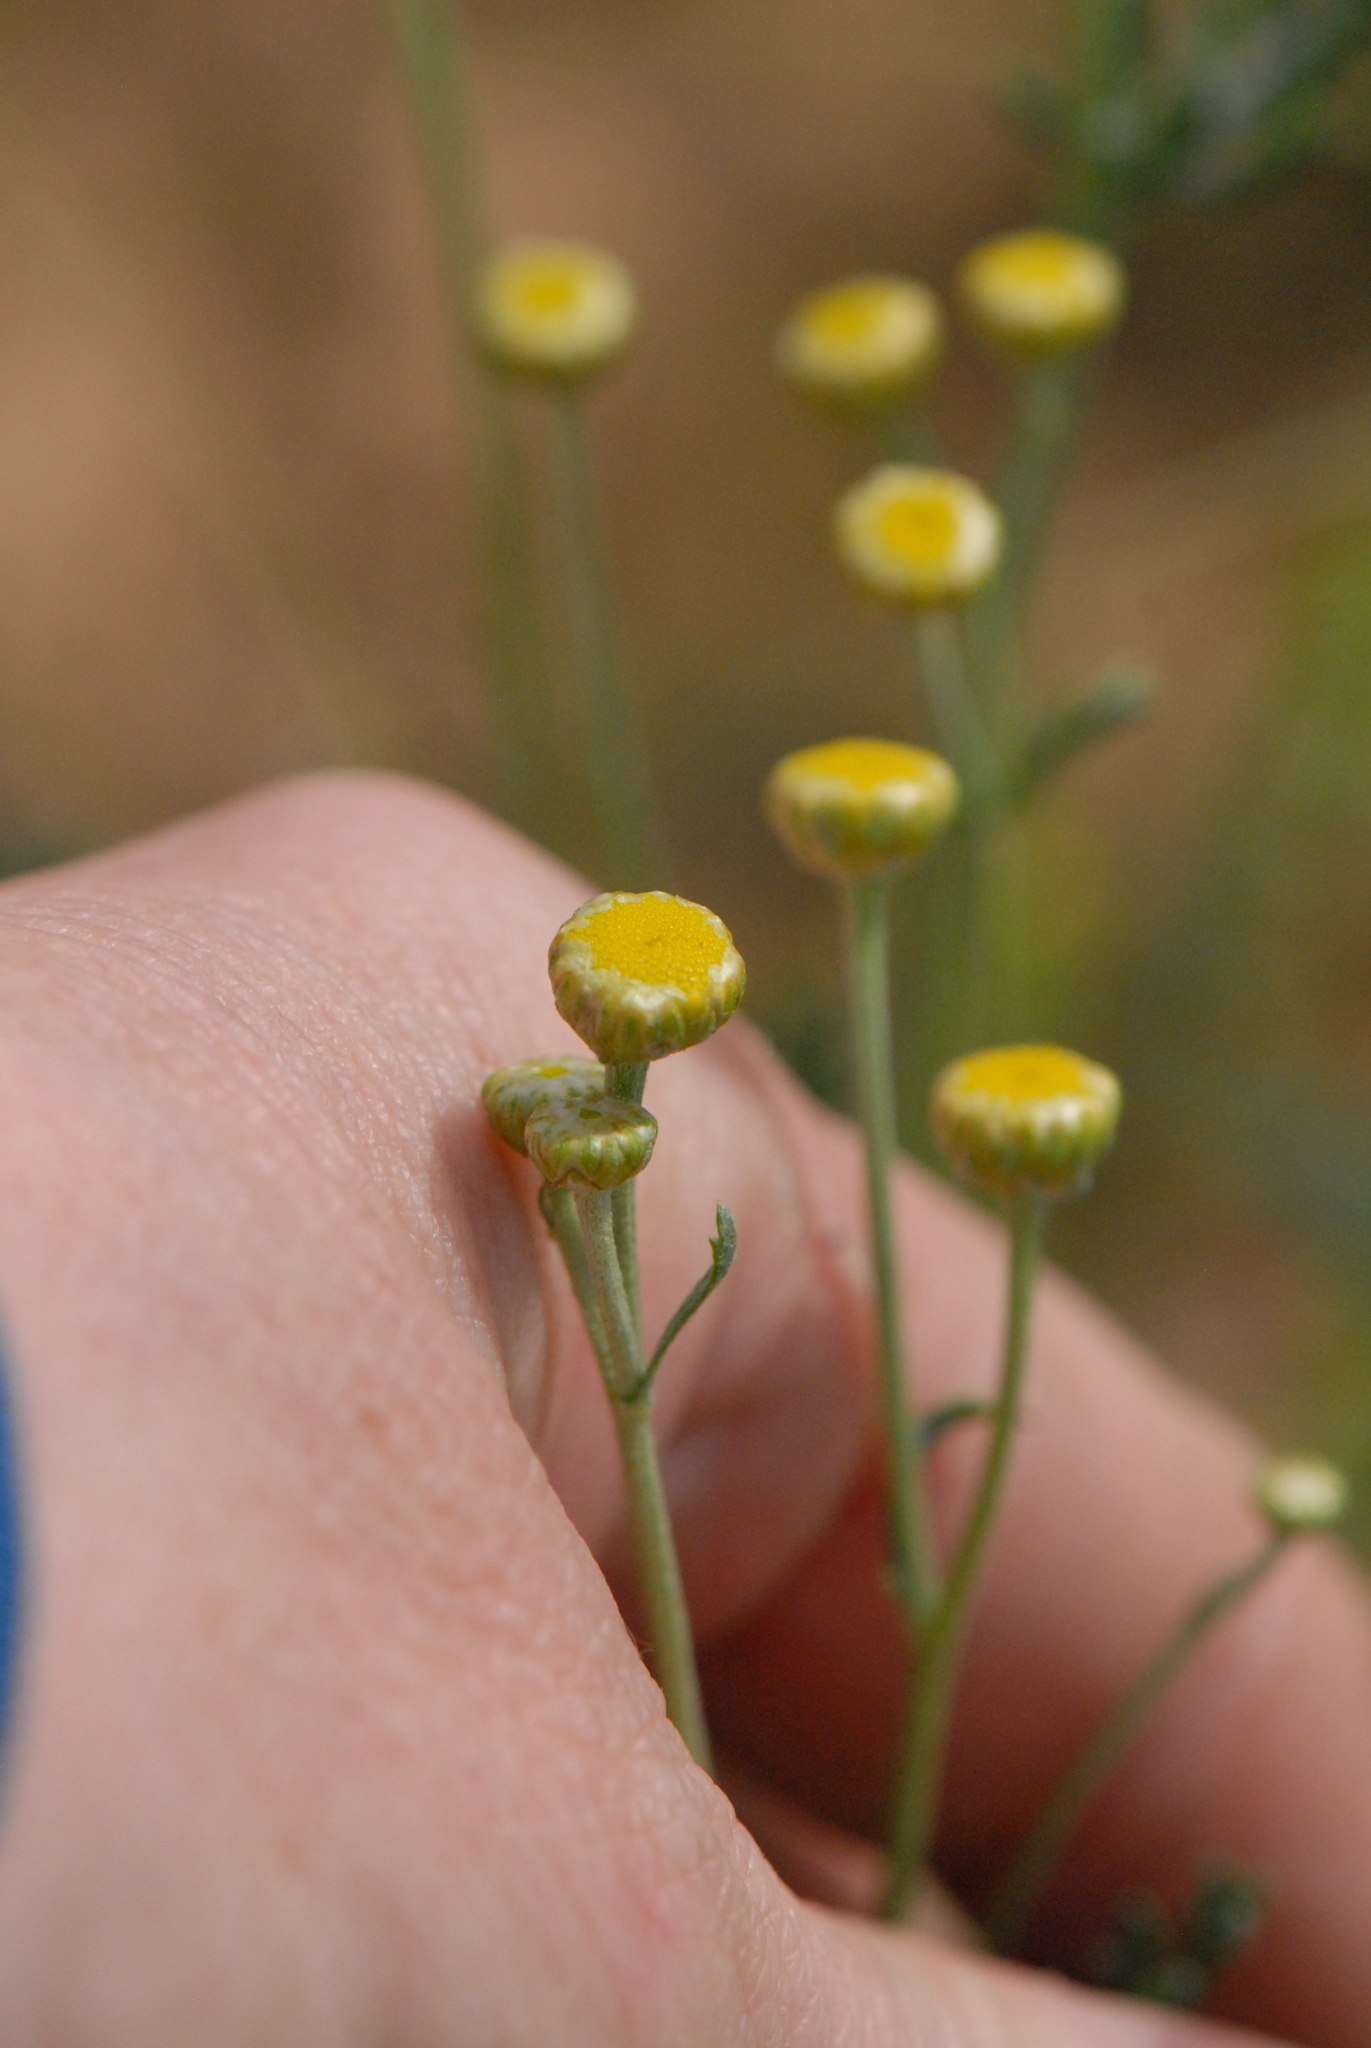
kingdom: Plantae
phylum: Tracheophyta
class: Magnoliopsida
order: Asterales
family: Asteraceae
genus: Tanacetum
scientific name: Tanacetum achilleifolium
